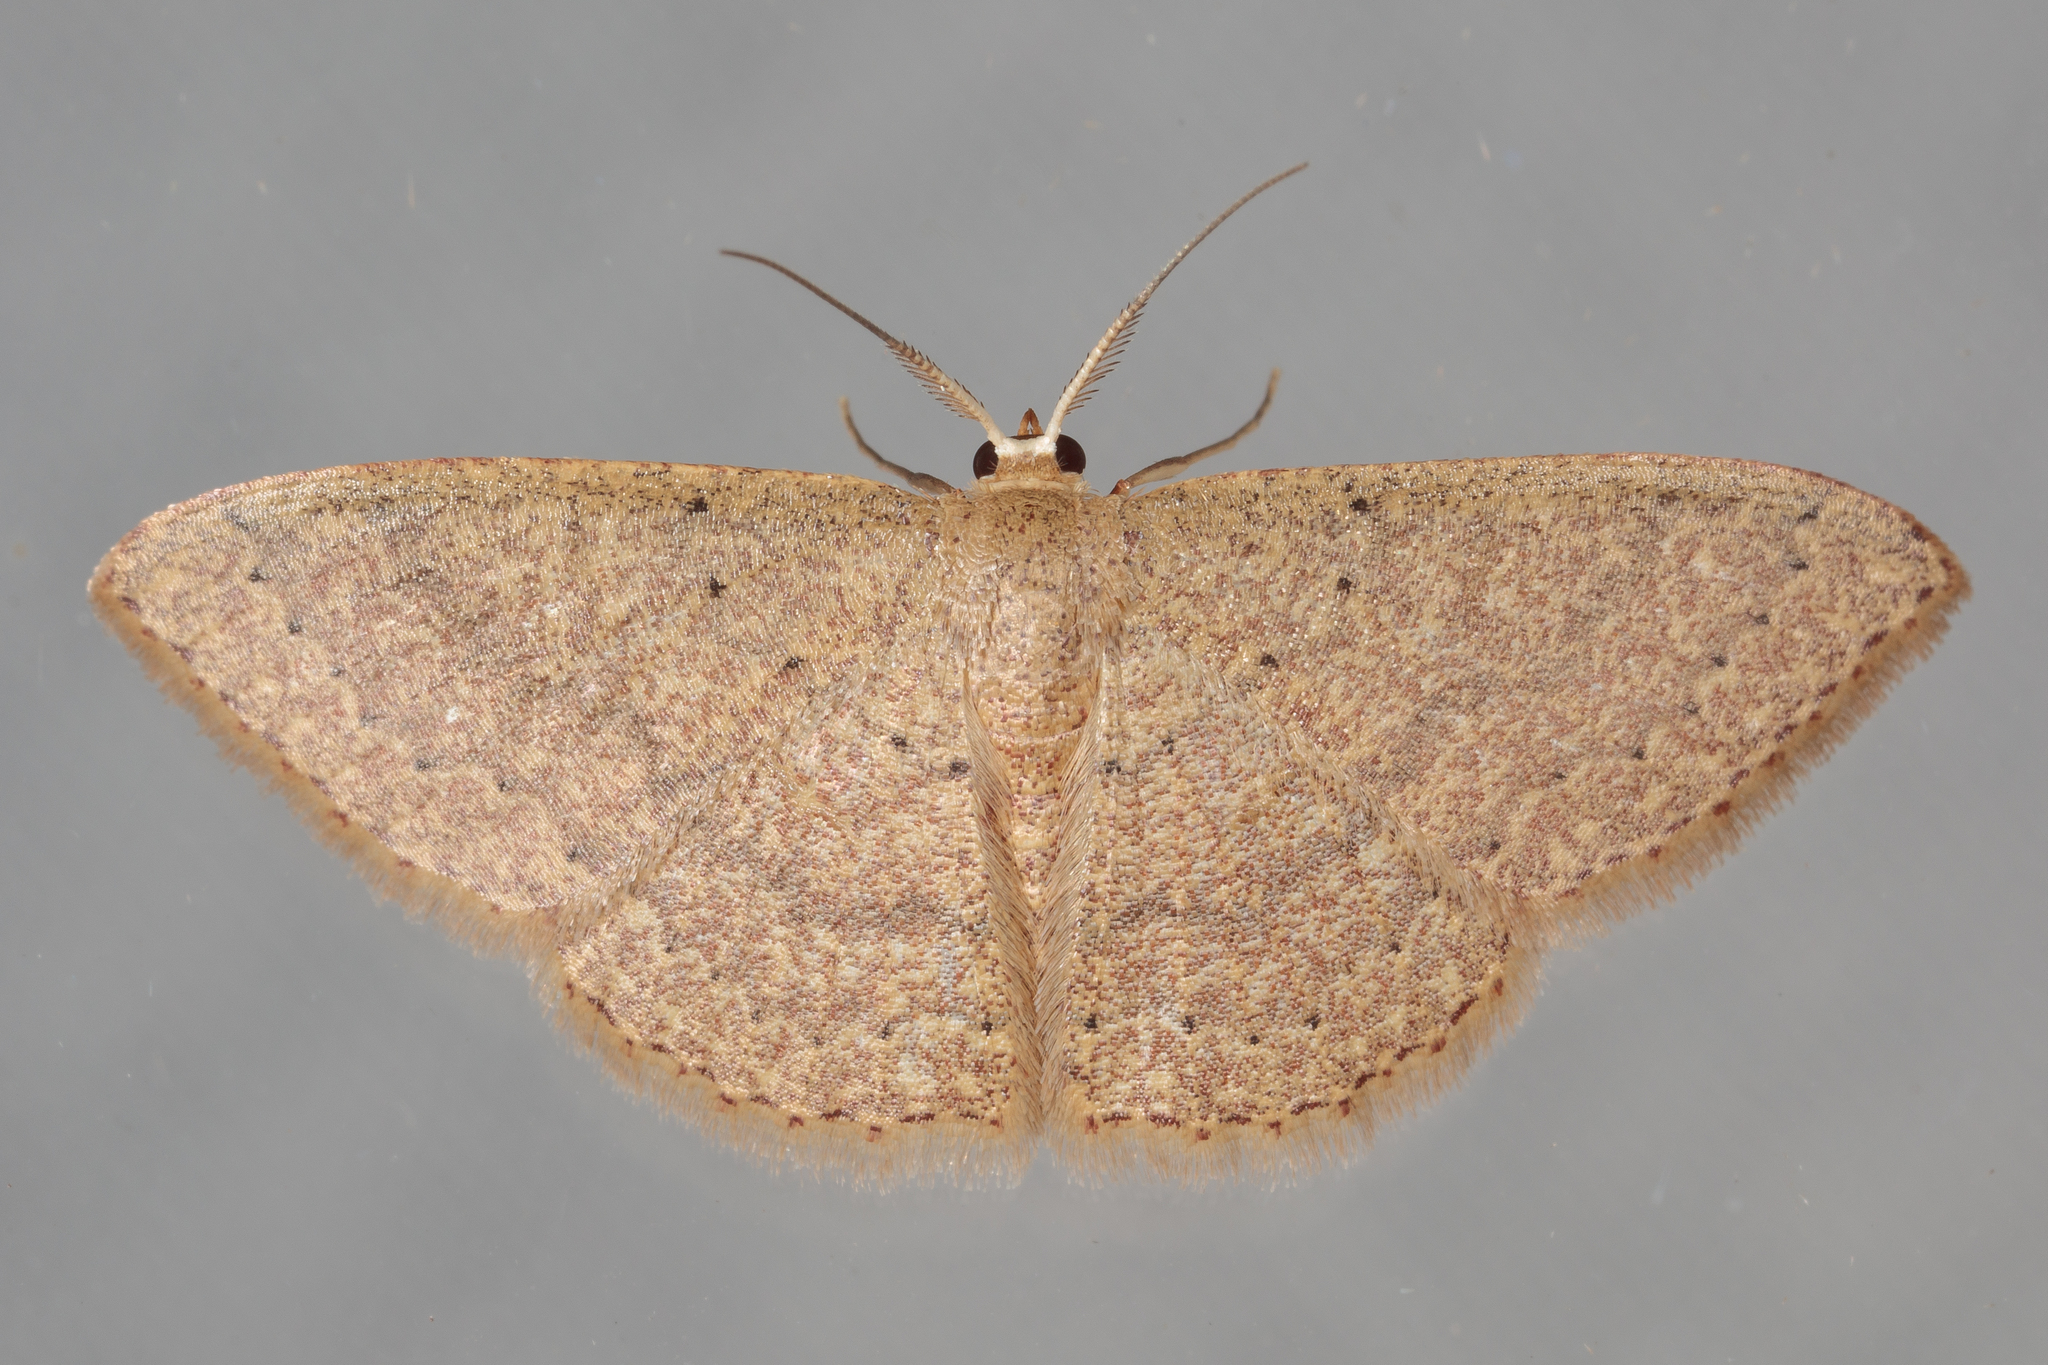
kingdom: Animalia
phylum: Arthropoda
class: Insecta
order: Lepidoptera
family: Geometridae
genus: Pleuroprucha
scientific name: Pleuroprucha insulsaria
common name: Common tan wave
